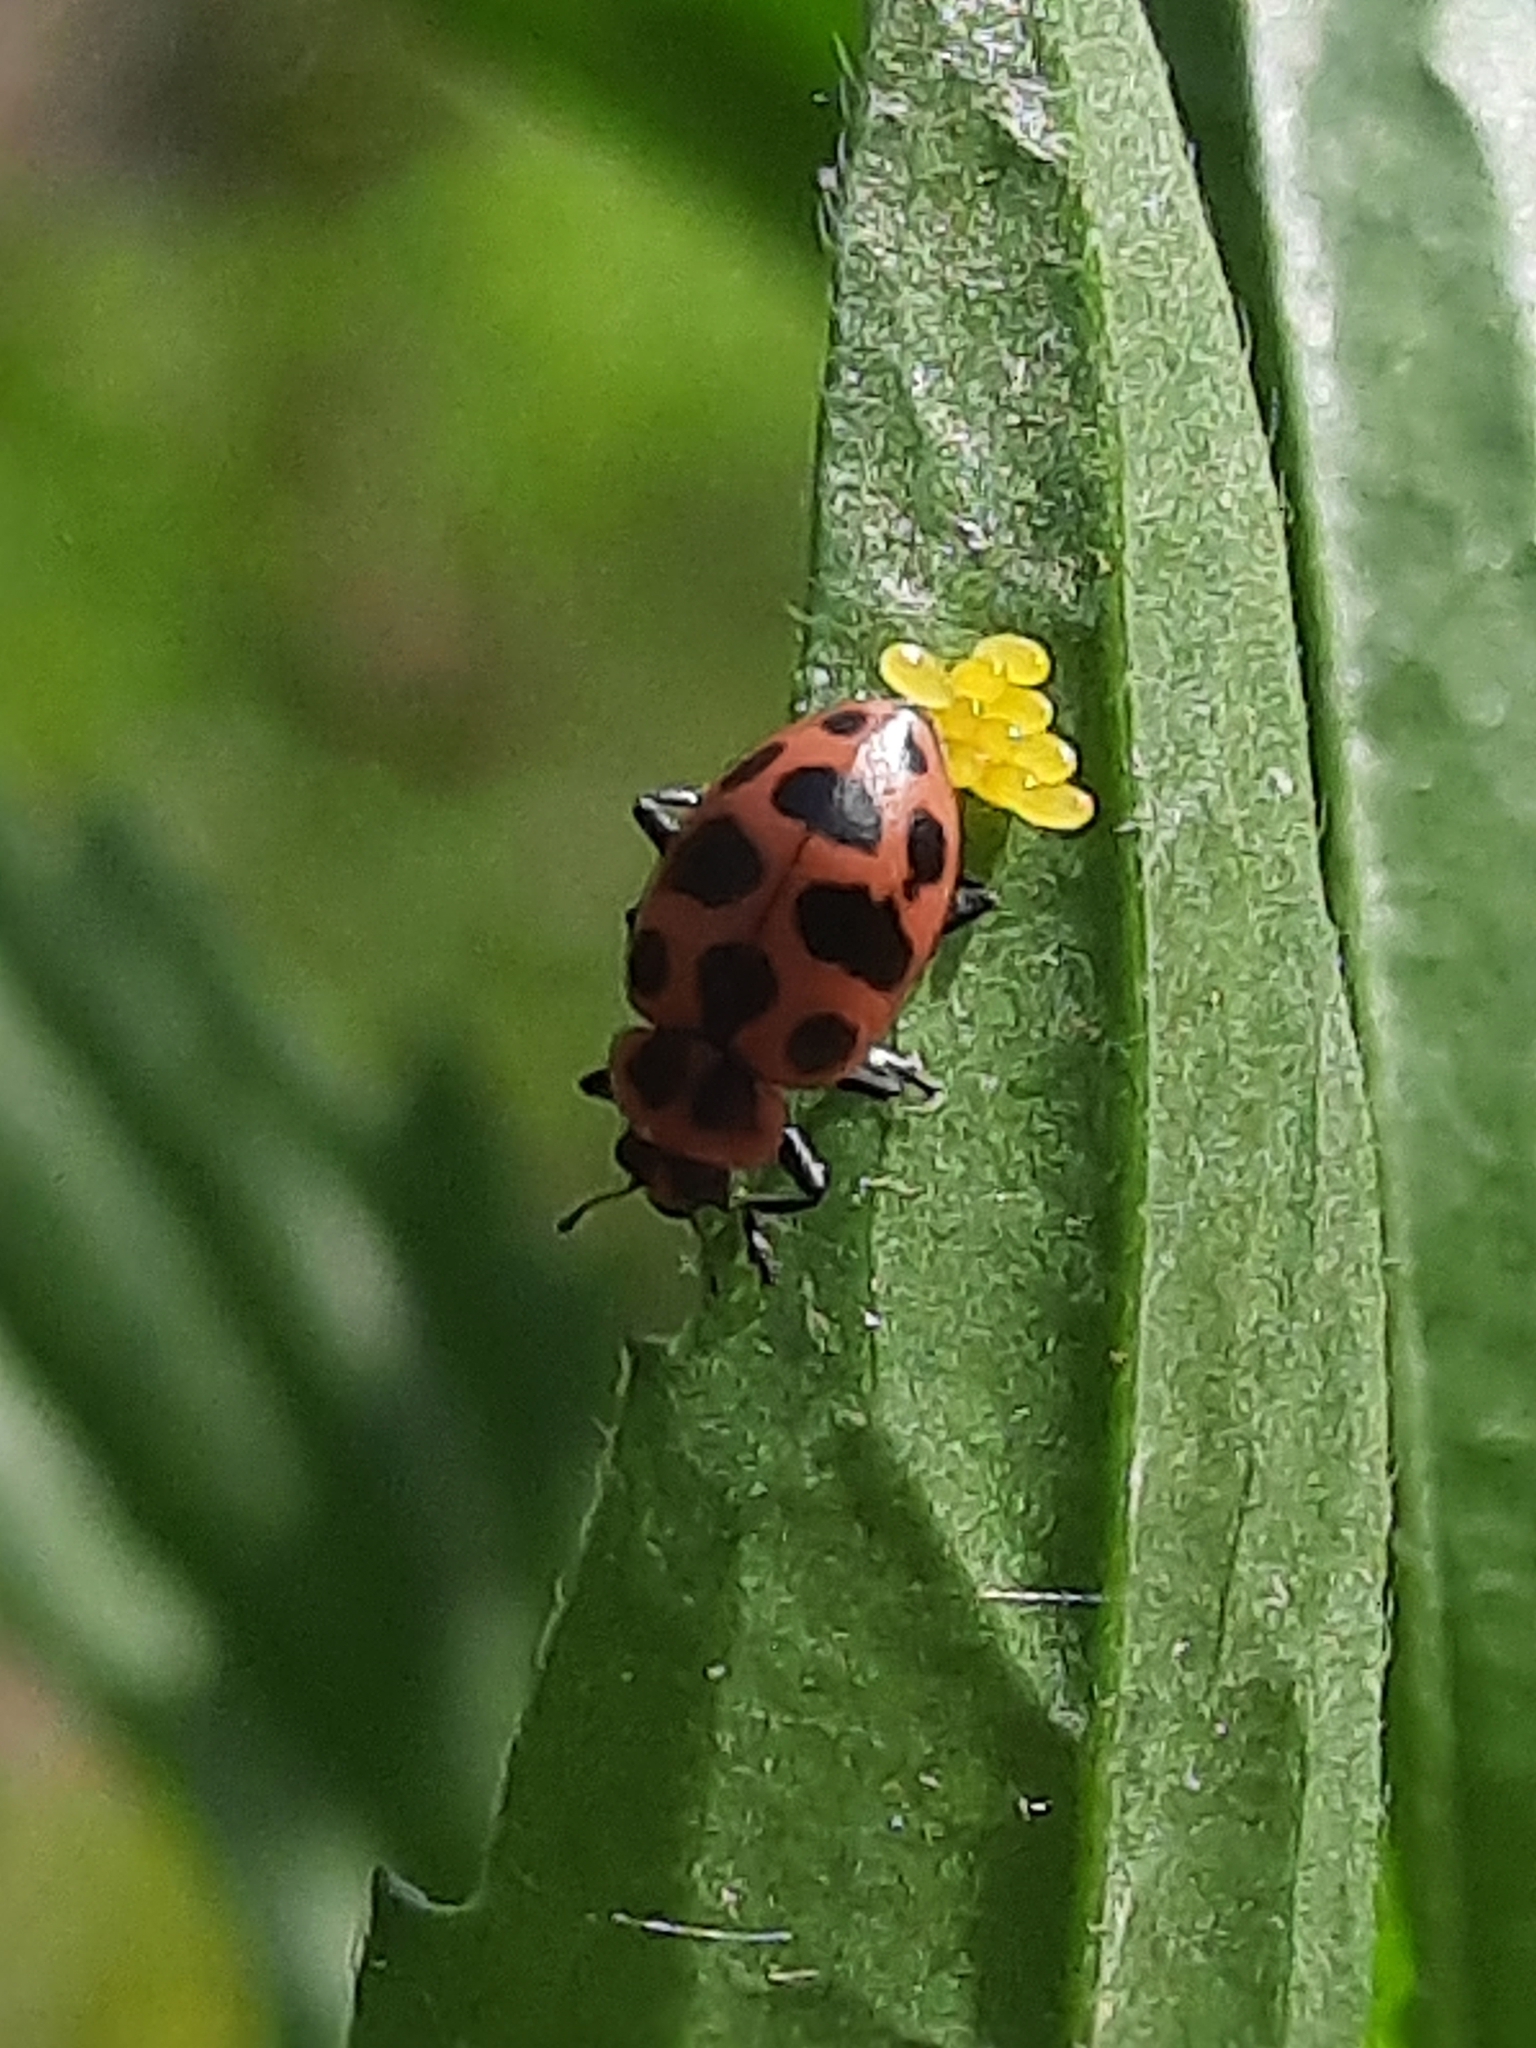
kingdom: Animalia
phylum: Arthropoda
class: Insecta
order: Coleoptera
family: Coccinellidae
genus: Coleomegilla
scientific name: Coleomegilla maculata
